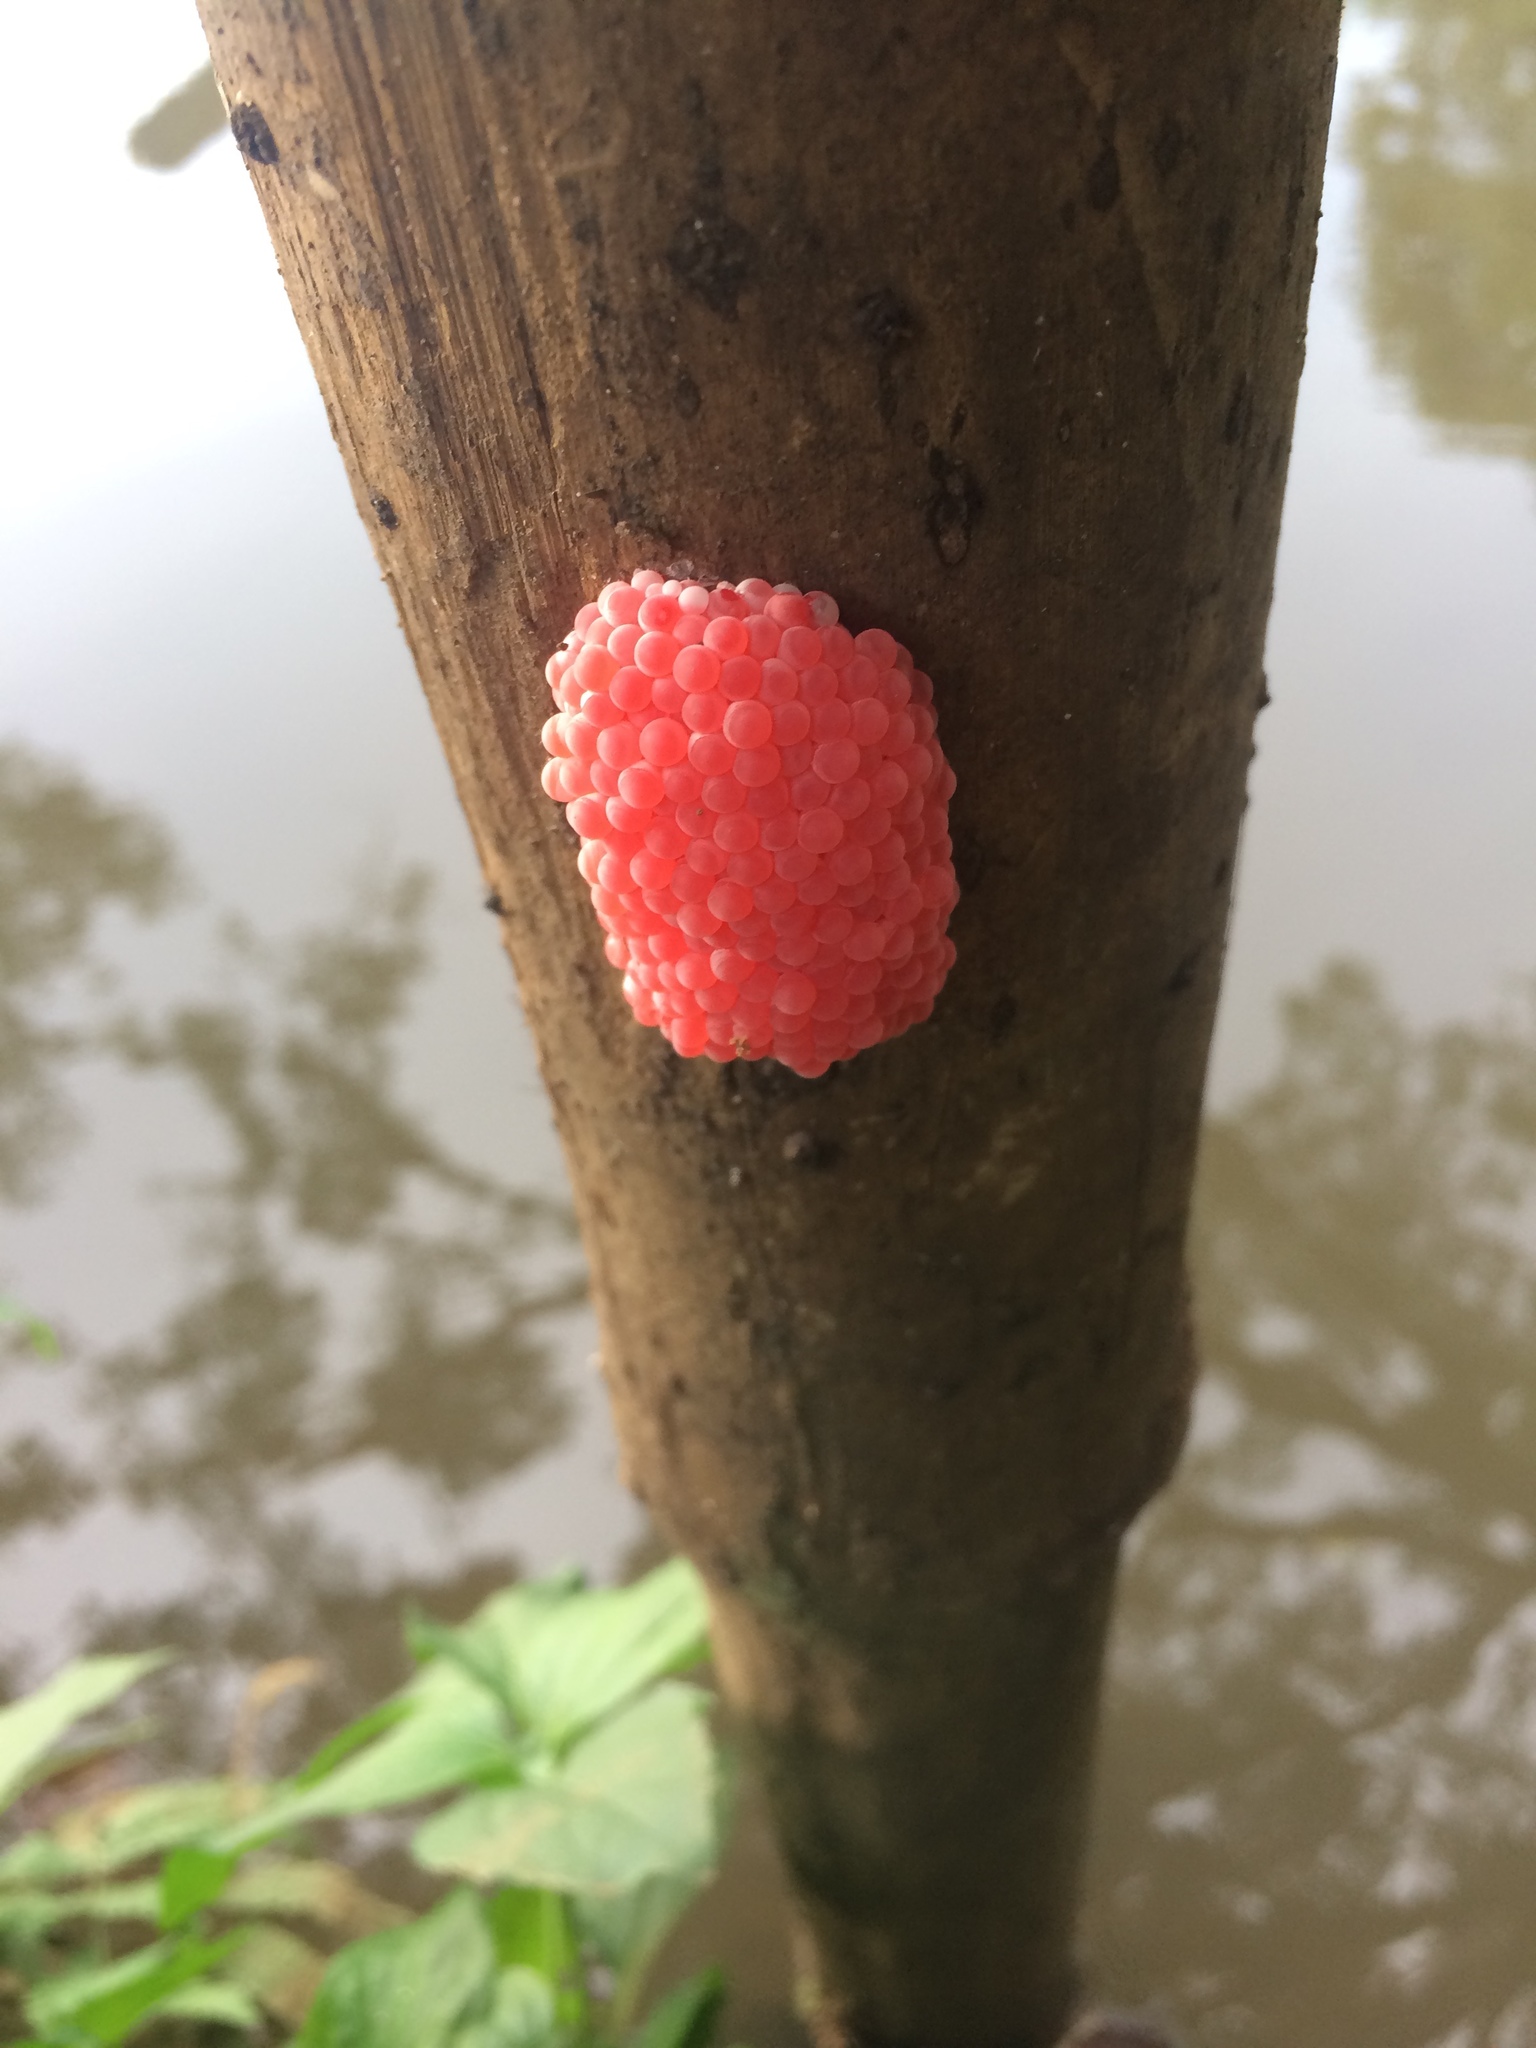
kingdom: Animalia
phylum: Mollusca
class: Gastropoda
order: Architaenioglossa
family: Ampullariidae
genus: Pomacea
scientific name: Pomacea canaliculata
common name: Channeled applesnail
